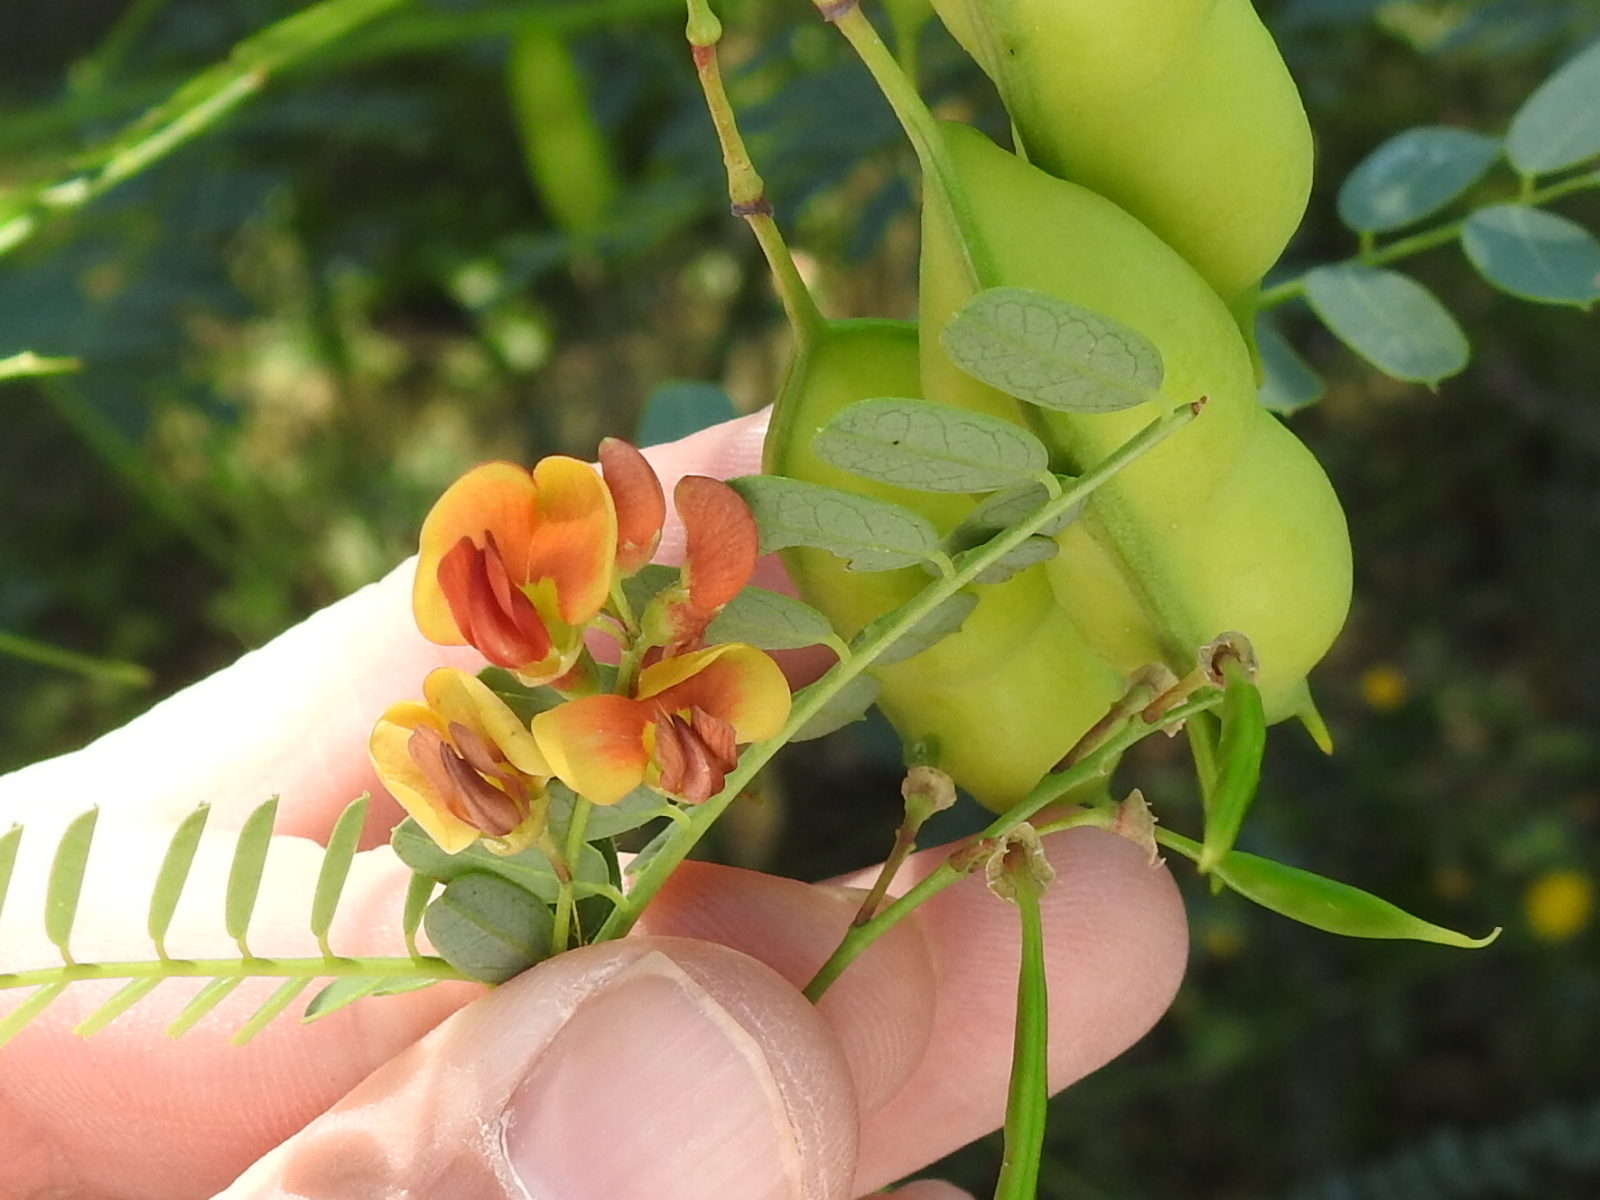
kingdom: Plantae
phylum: Tracheophyta
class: Magnoliopsida
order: Fabales
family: Fabaceae
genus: Sesbania
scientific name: Sesbania vesicaria
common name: Bagpod
